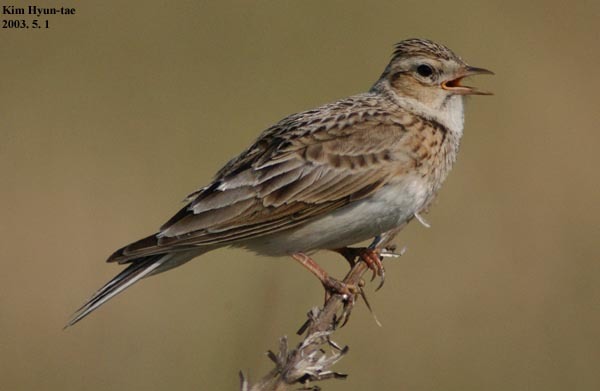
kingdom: Animalia
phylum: Chordata
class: Aves
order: Passeriformes
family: Alaudidae
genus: Alauda
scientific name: Alauda arvensis
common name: Eurasian skylark
